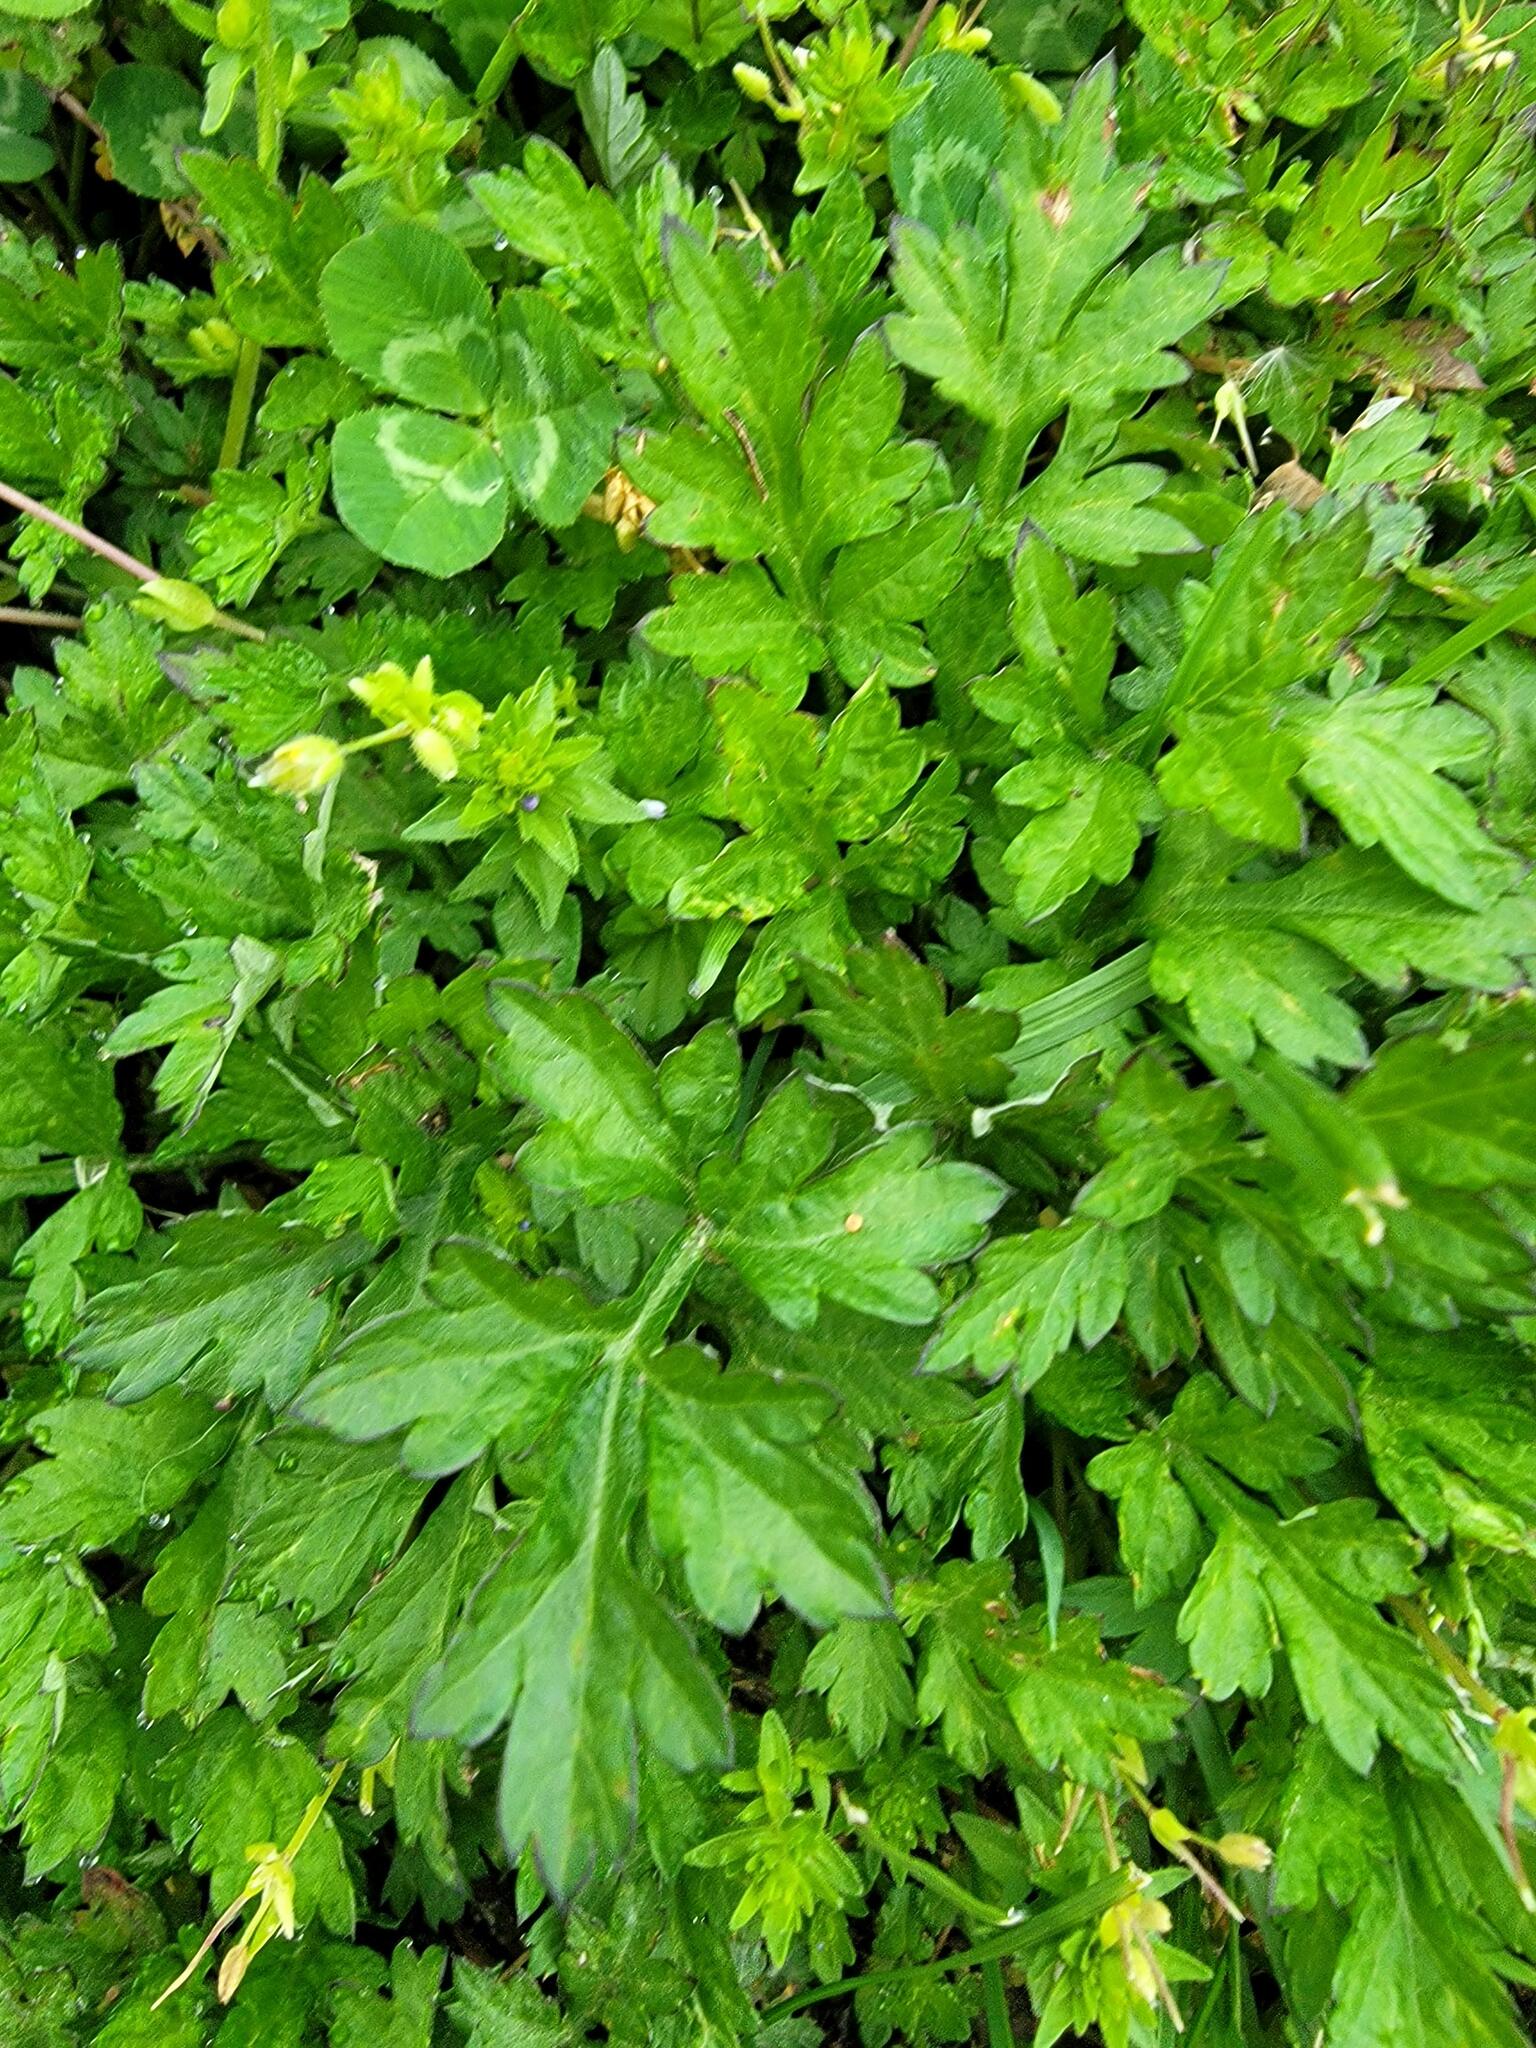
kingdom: Plantae
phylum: Tracheophyta
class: Magnoliopsida
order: Asterales
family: Asteraceae
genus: Artemisia
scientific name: Artemisia vulgaris
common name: Mugwort
